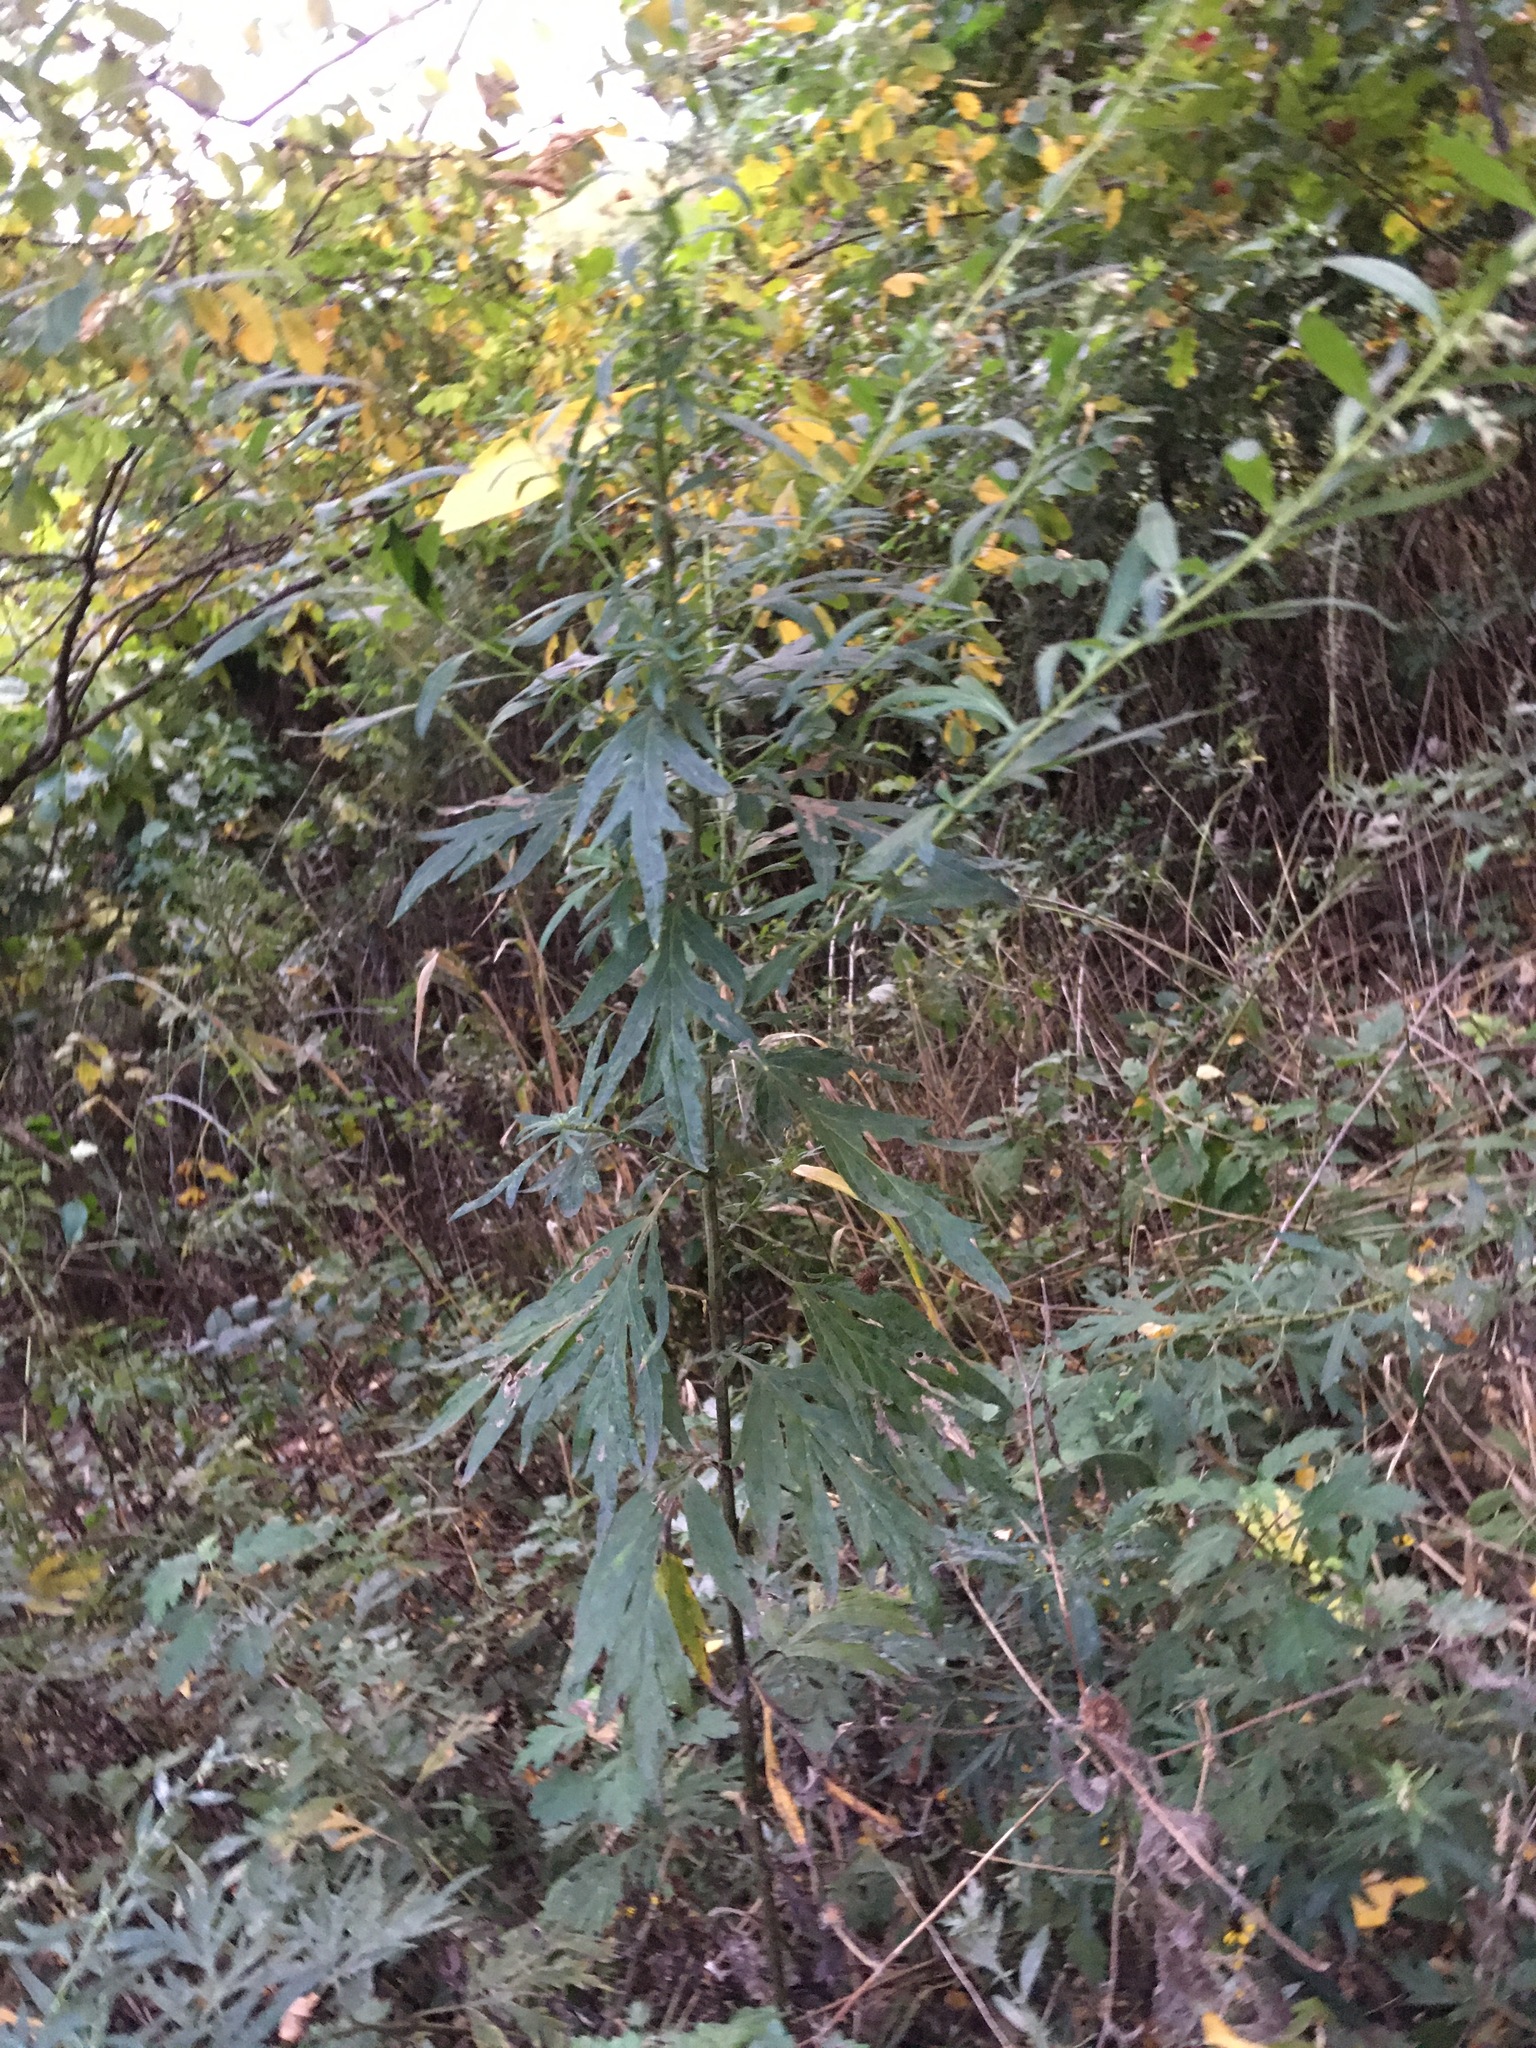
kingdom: Plantae
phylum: Tracheophyta
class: Magnoliopsida
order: Asterales
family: Asteraceae
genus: Artemisia
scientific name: Artemisia vulgaris
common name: Mugwort
